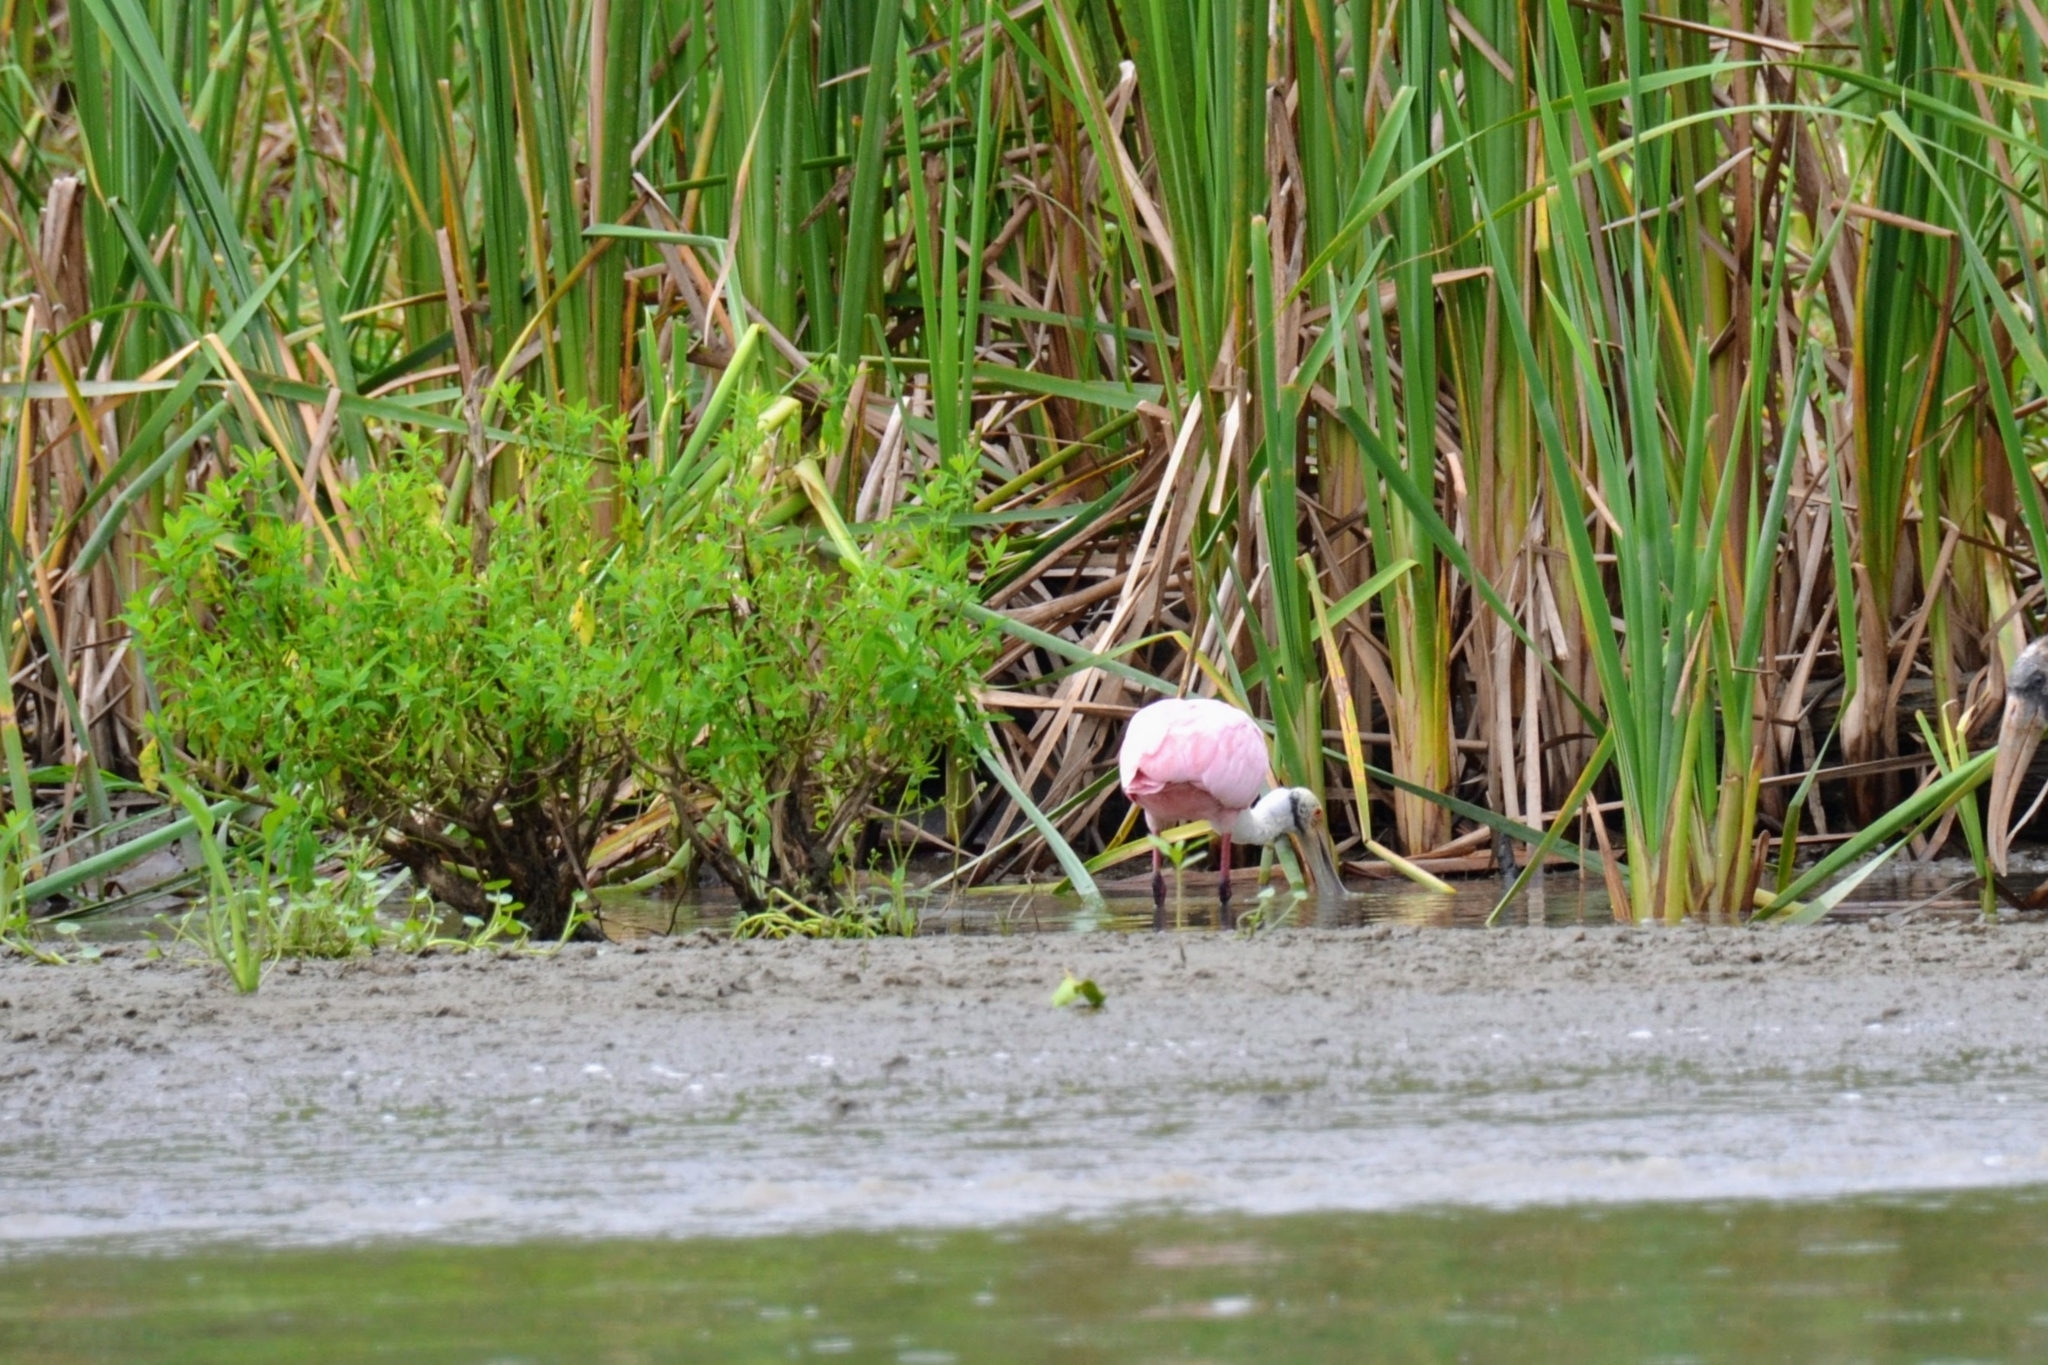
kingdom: Animalia
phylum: Chordata
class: Aves
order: Pelecaniformes
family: Threskiornithidae
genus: Platalea
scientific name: Platalea ajaja
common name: Roseate spoonbill
